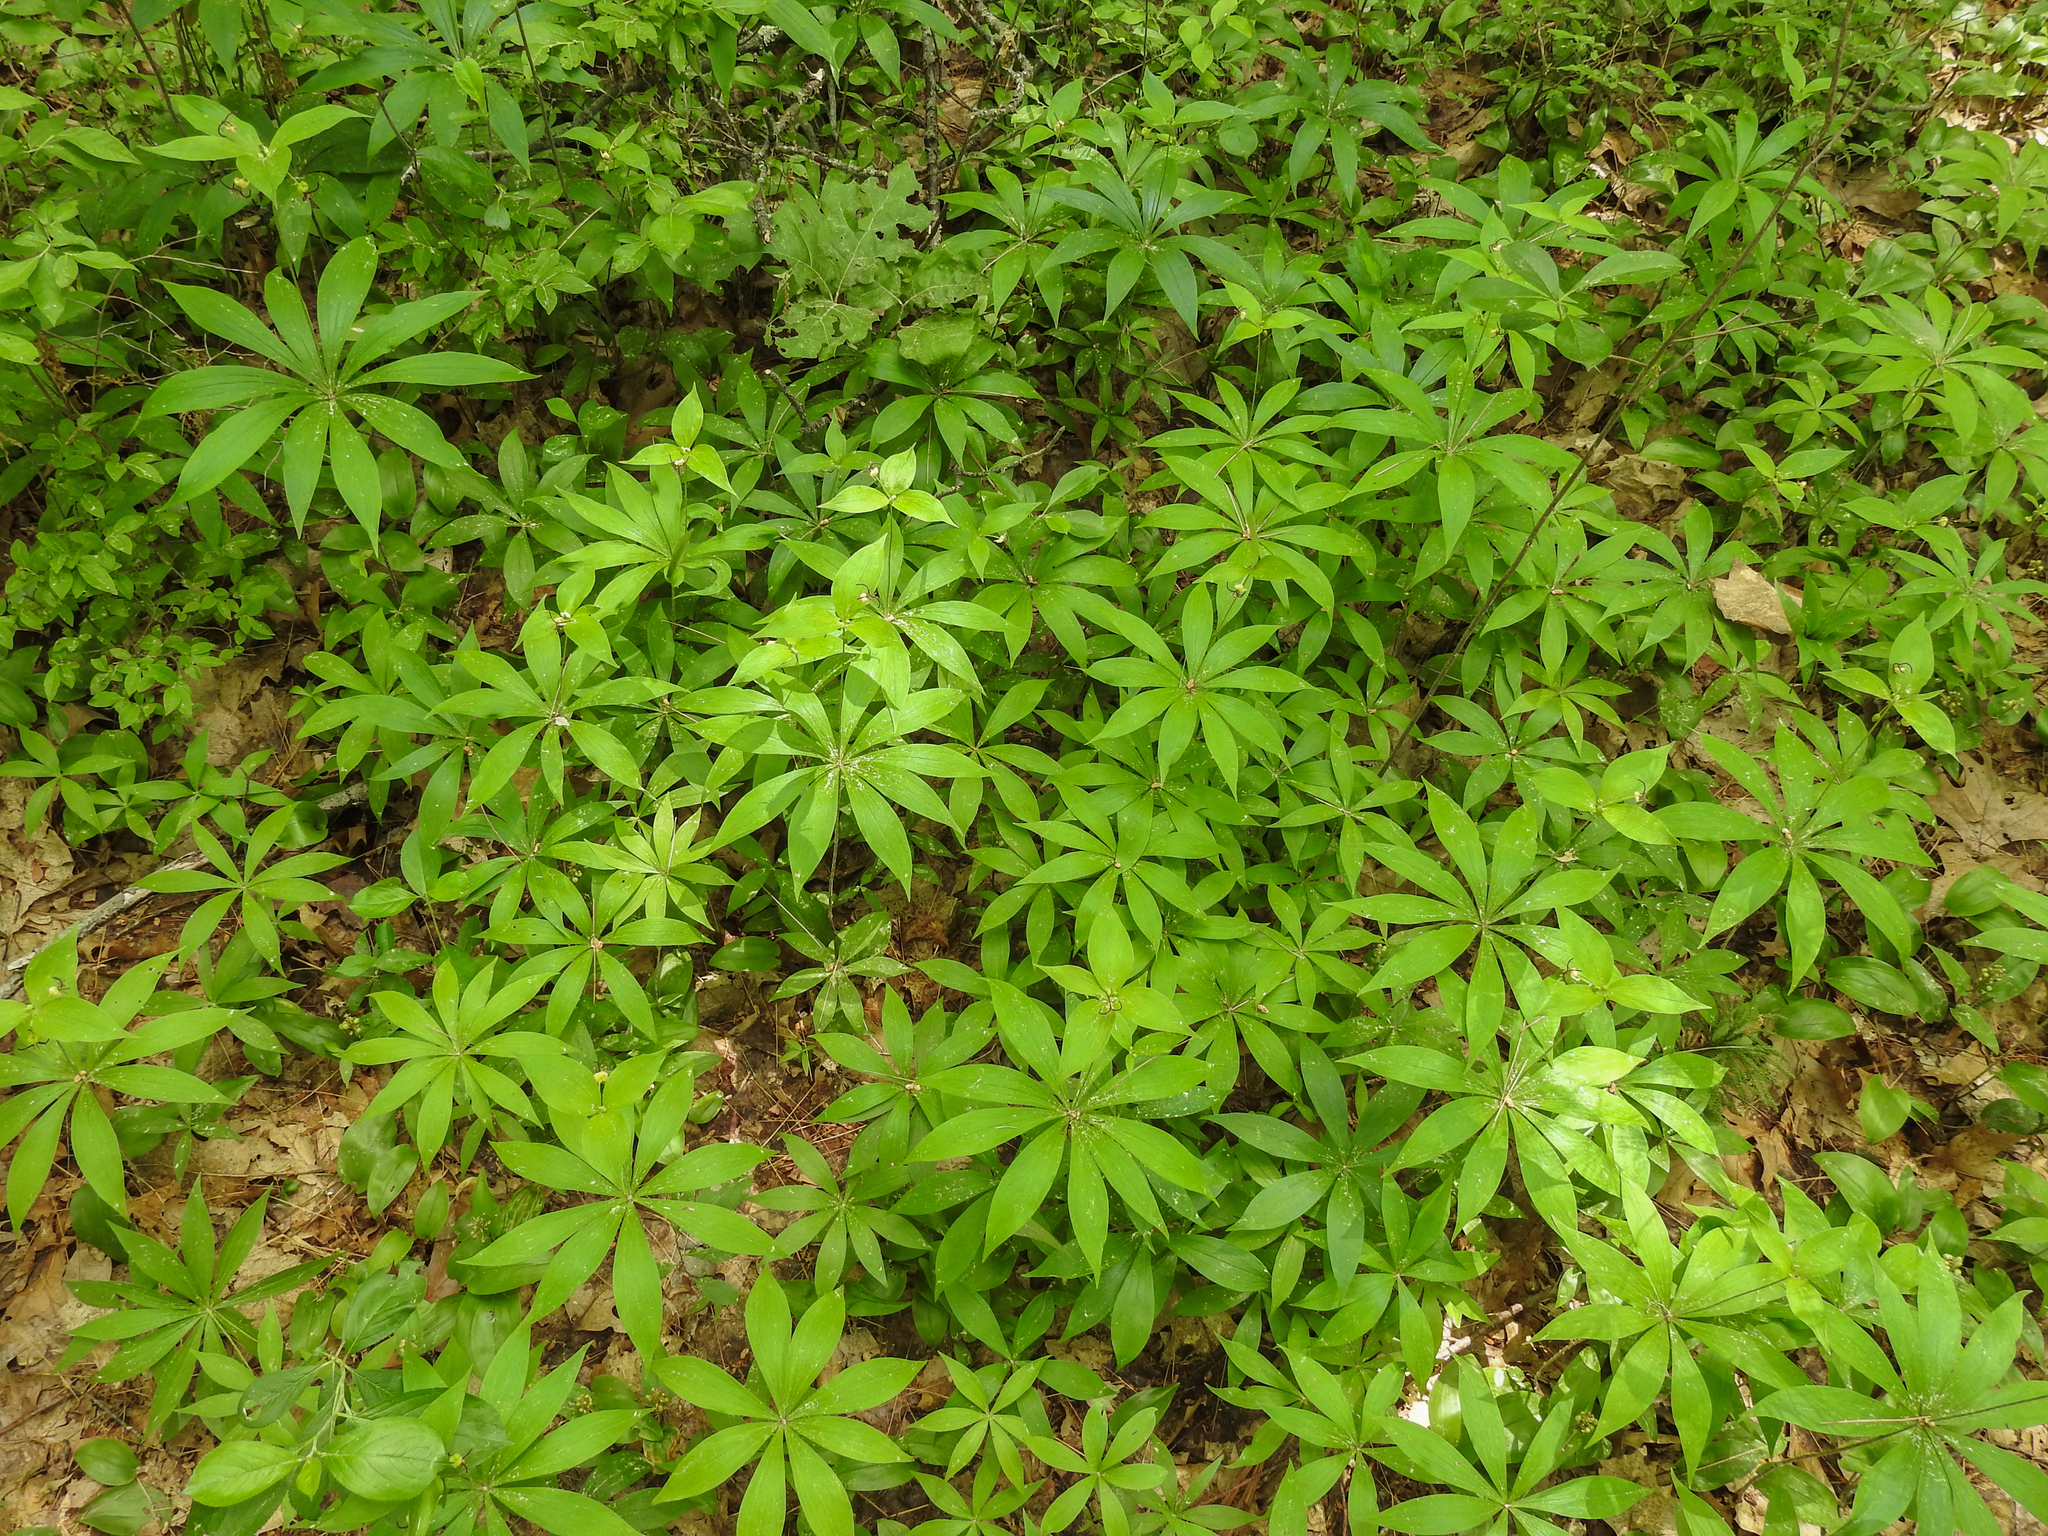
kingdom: Plantae
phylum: Tracheophyta
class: Liliopsida
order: Liliales
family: Liliaceae
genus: Medeola
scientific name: Medeola virginiana
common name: Indian cucumber-root
